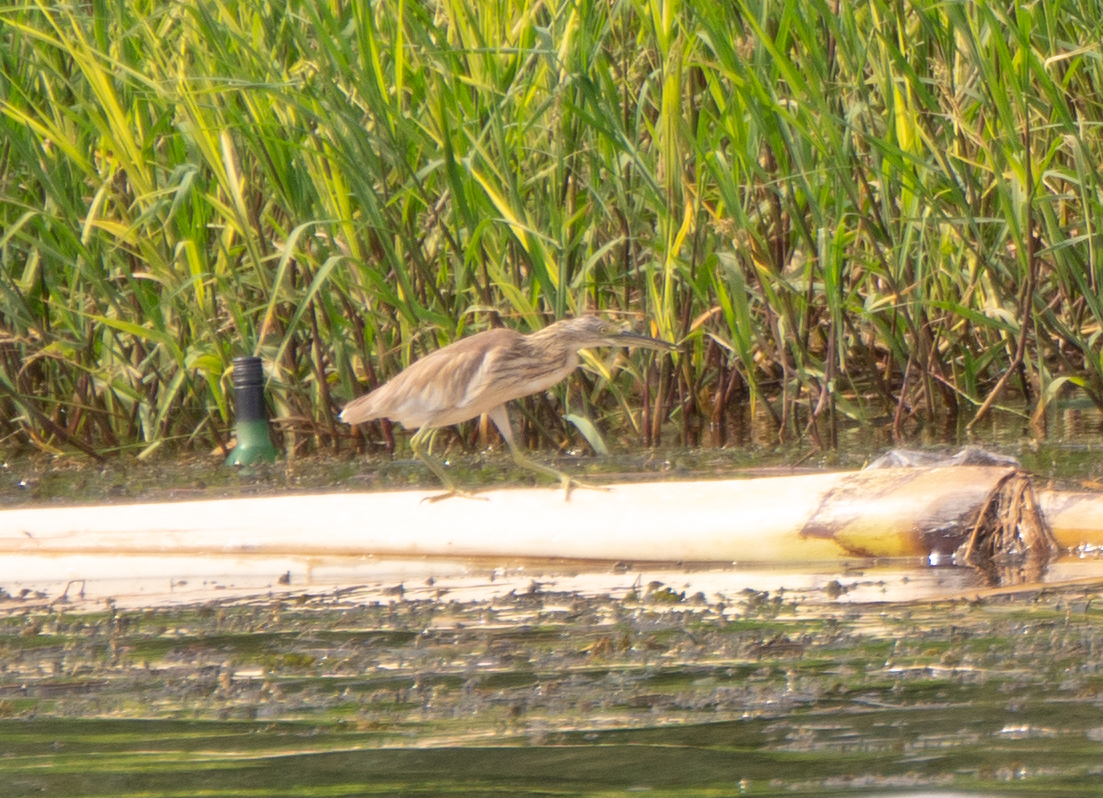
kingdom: Animalia
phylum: Chordata
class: Aves
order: Pelecaniformes
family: Ardeidae
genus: Ardeola
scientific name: Ardeola ralloides
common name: Squacco heron
